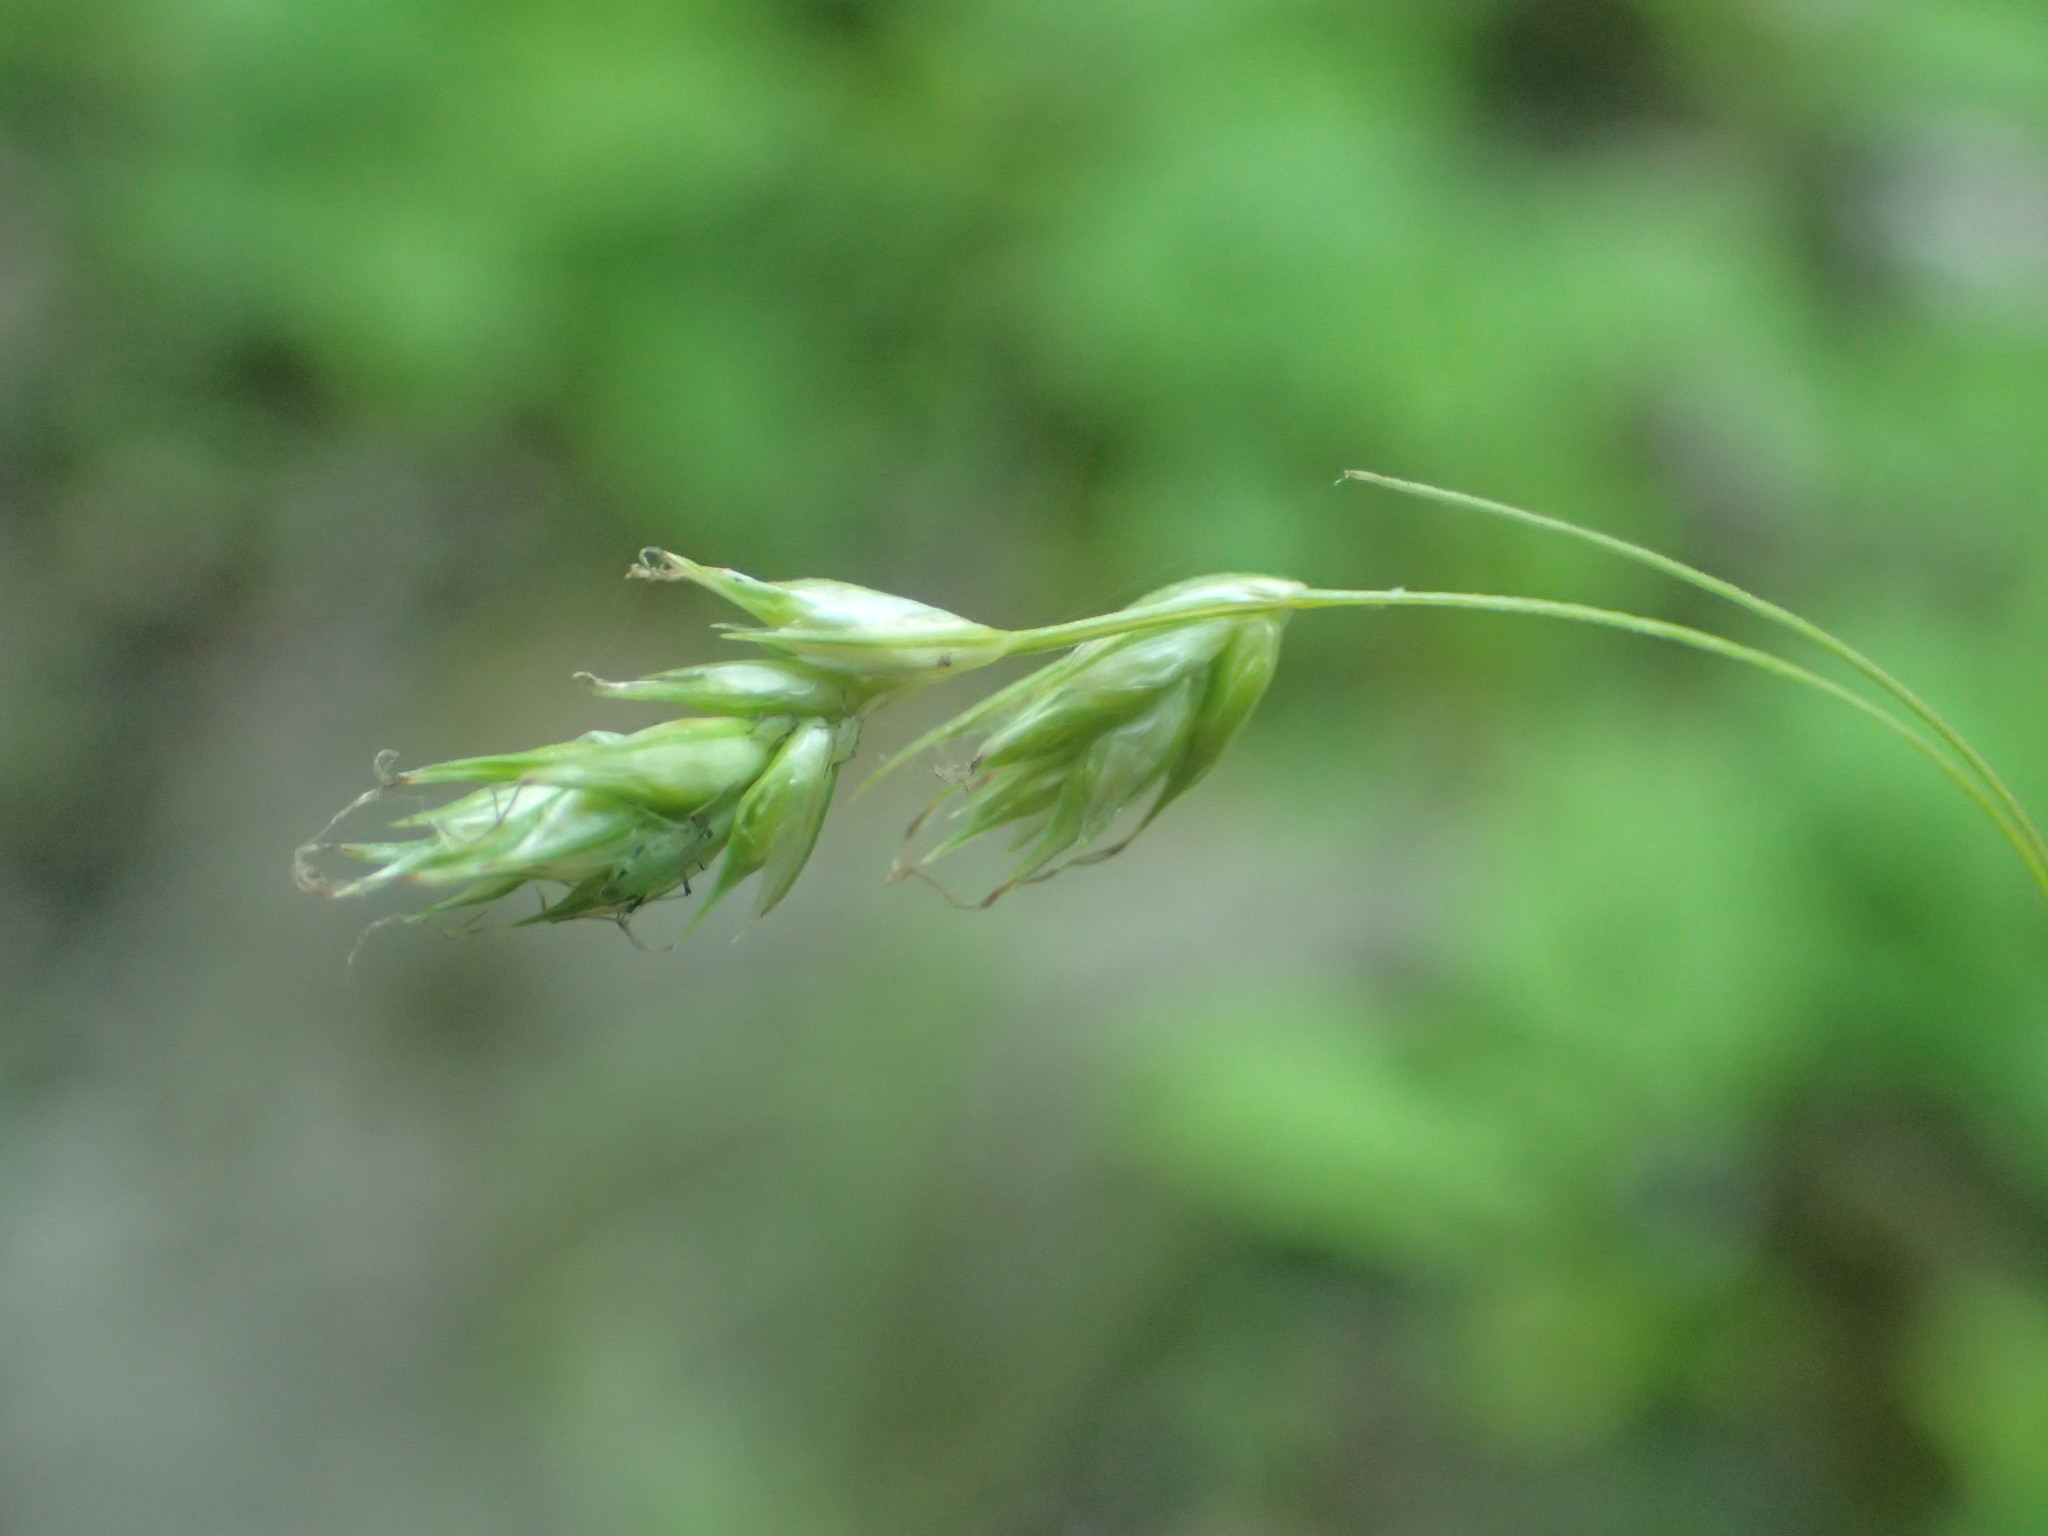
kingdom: Plantae
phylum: Tracheophyta
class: Liliopsida
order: Poales
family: Cyperaceae
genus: Carex
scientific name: Carex deweyana
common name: Dewey's sedge
